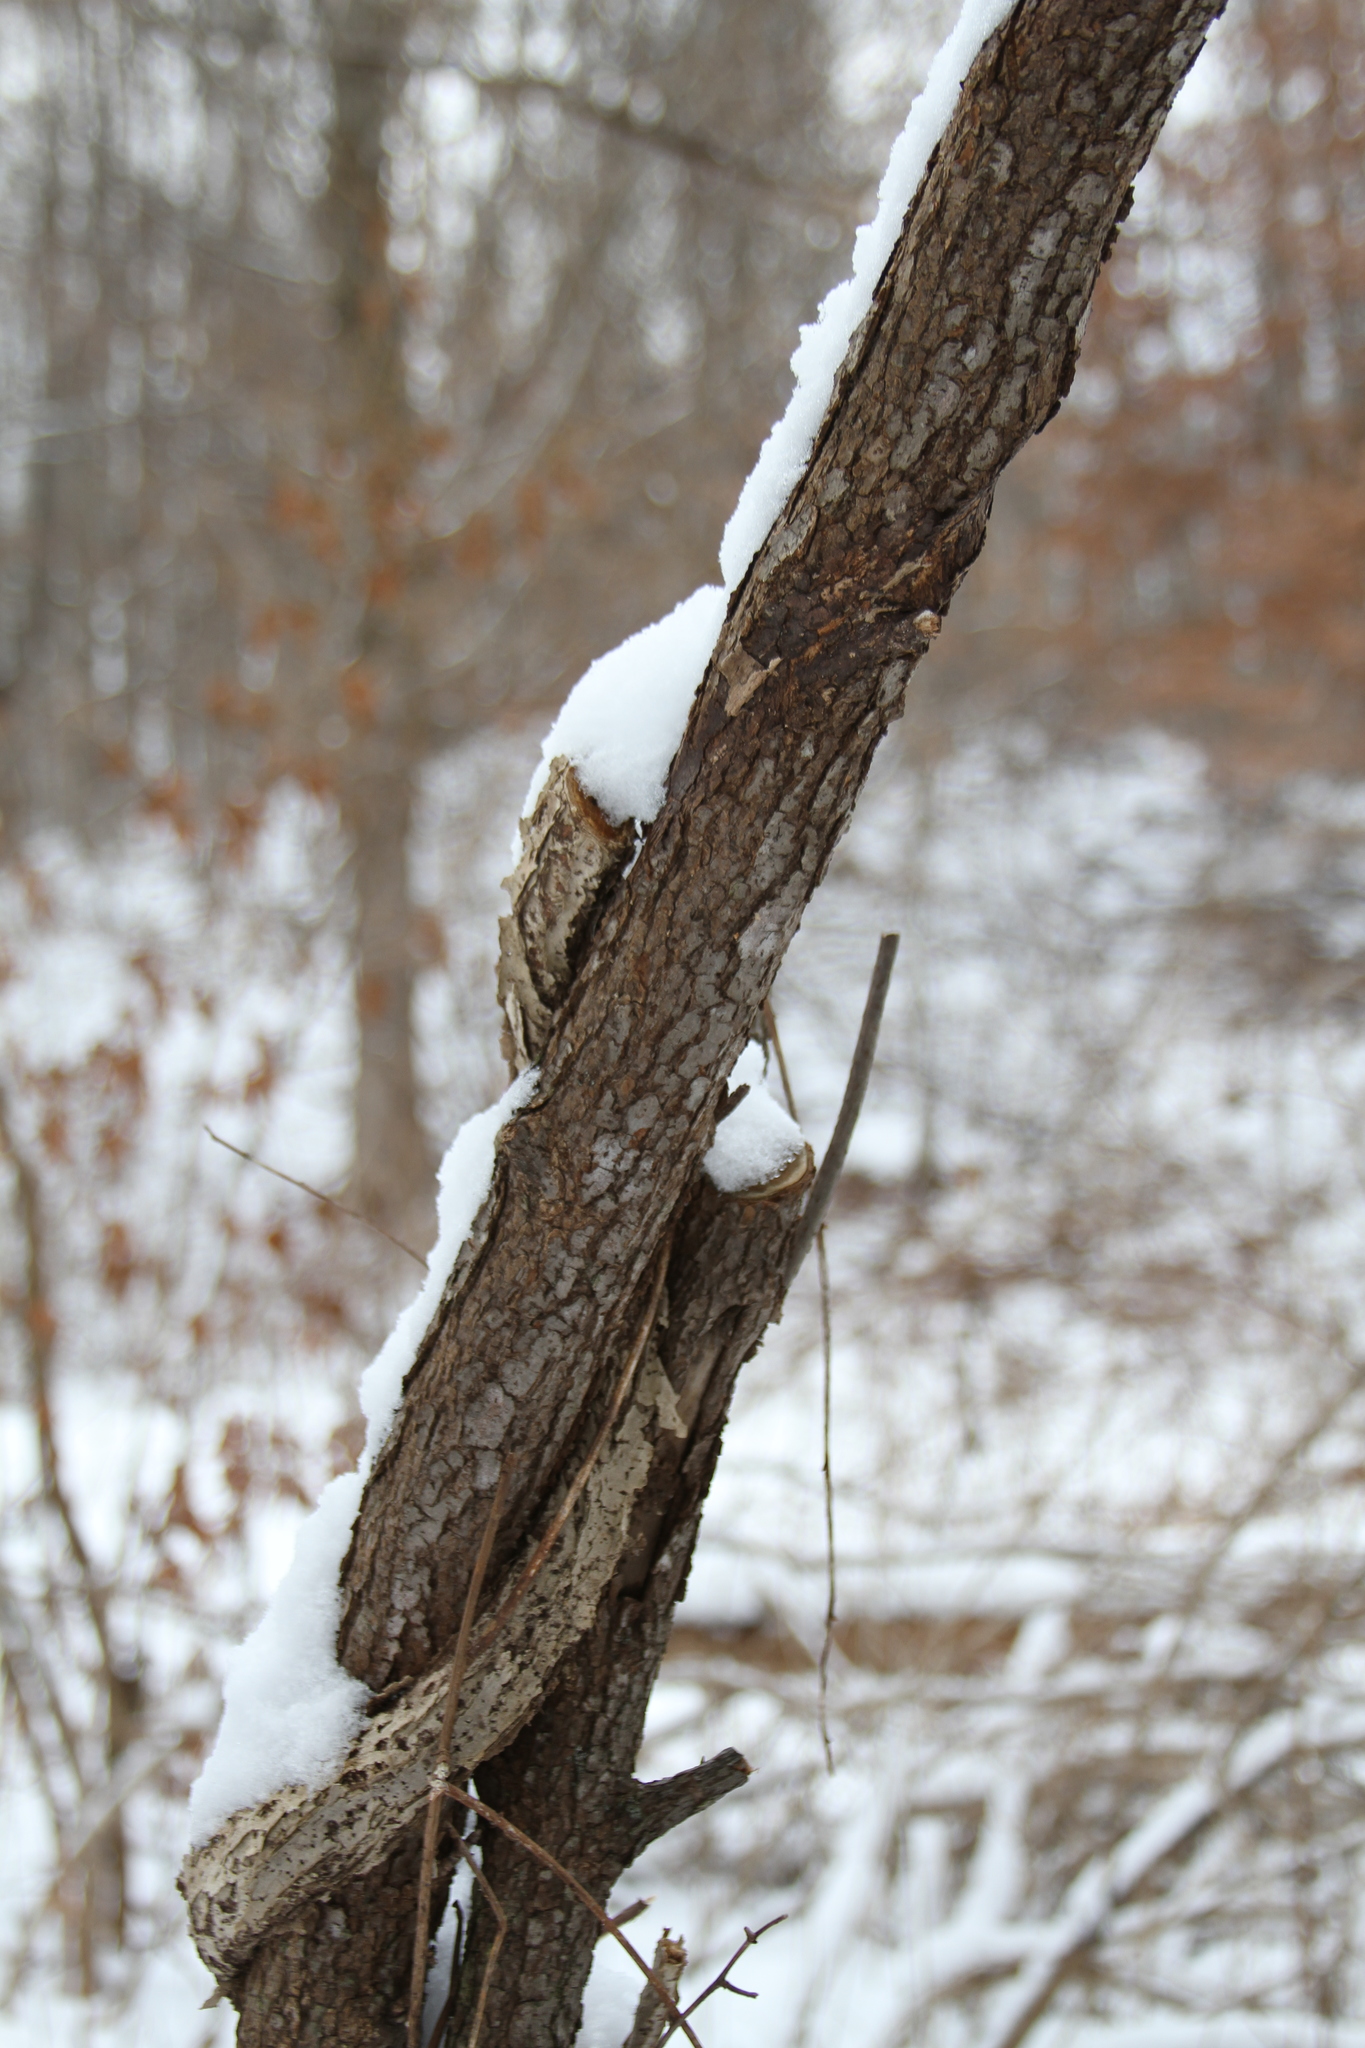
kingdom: Plantae
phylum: Tracheophyta
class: Magnoliopsida
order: Celastrales
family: Celastraceae
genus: Celastrus
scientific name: Celastrus orbiculatus
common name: Oriental bittersweet
